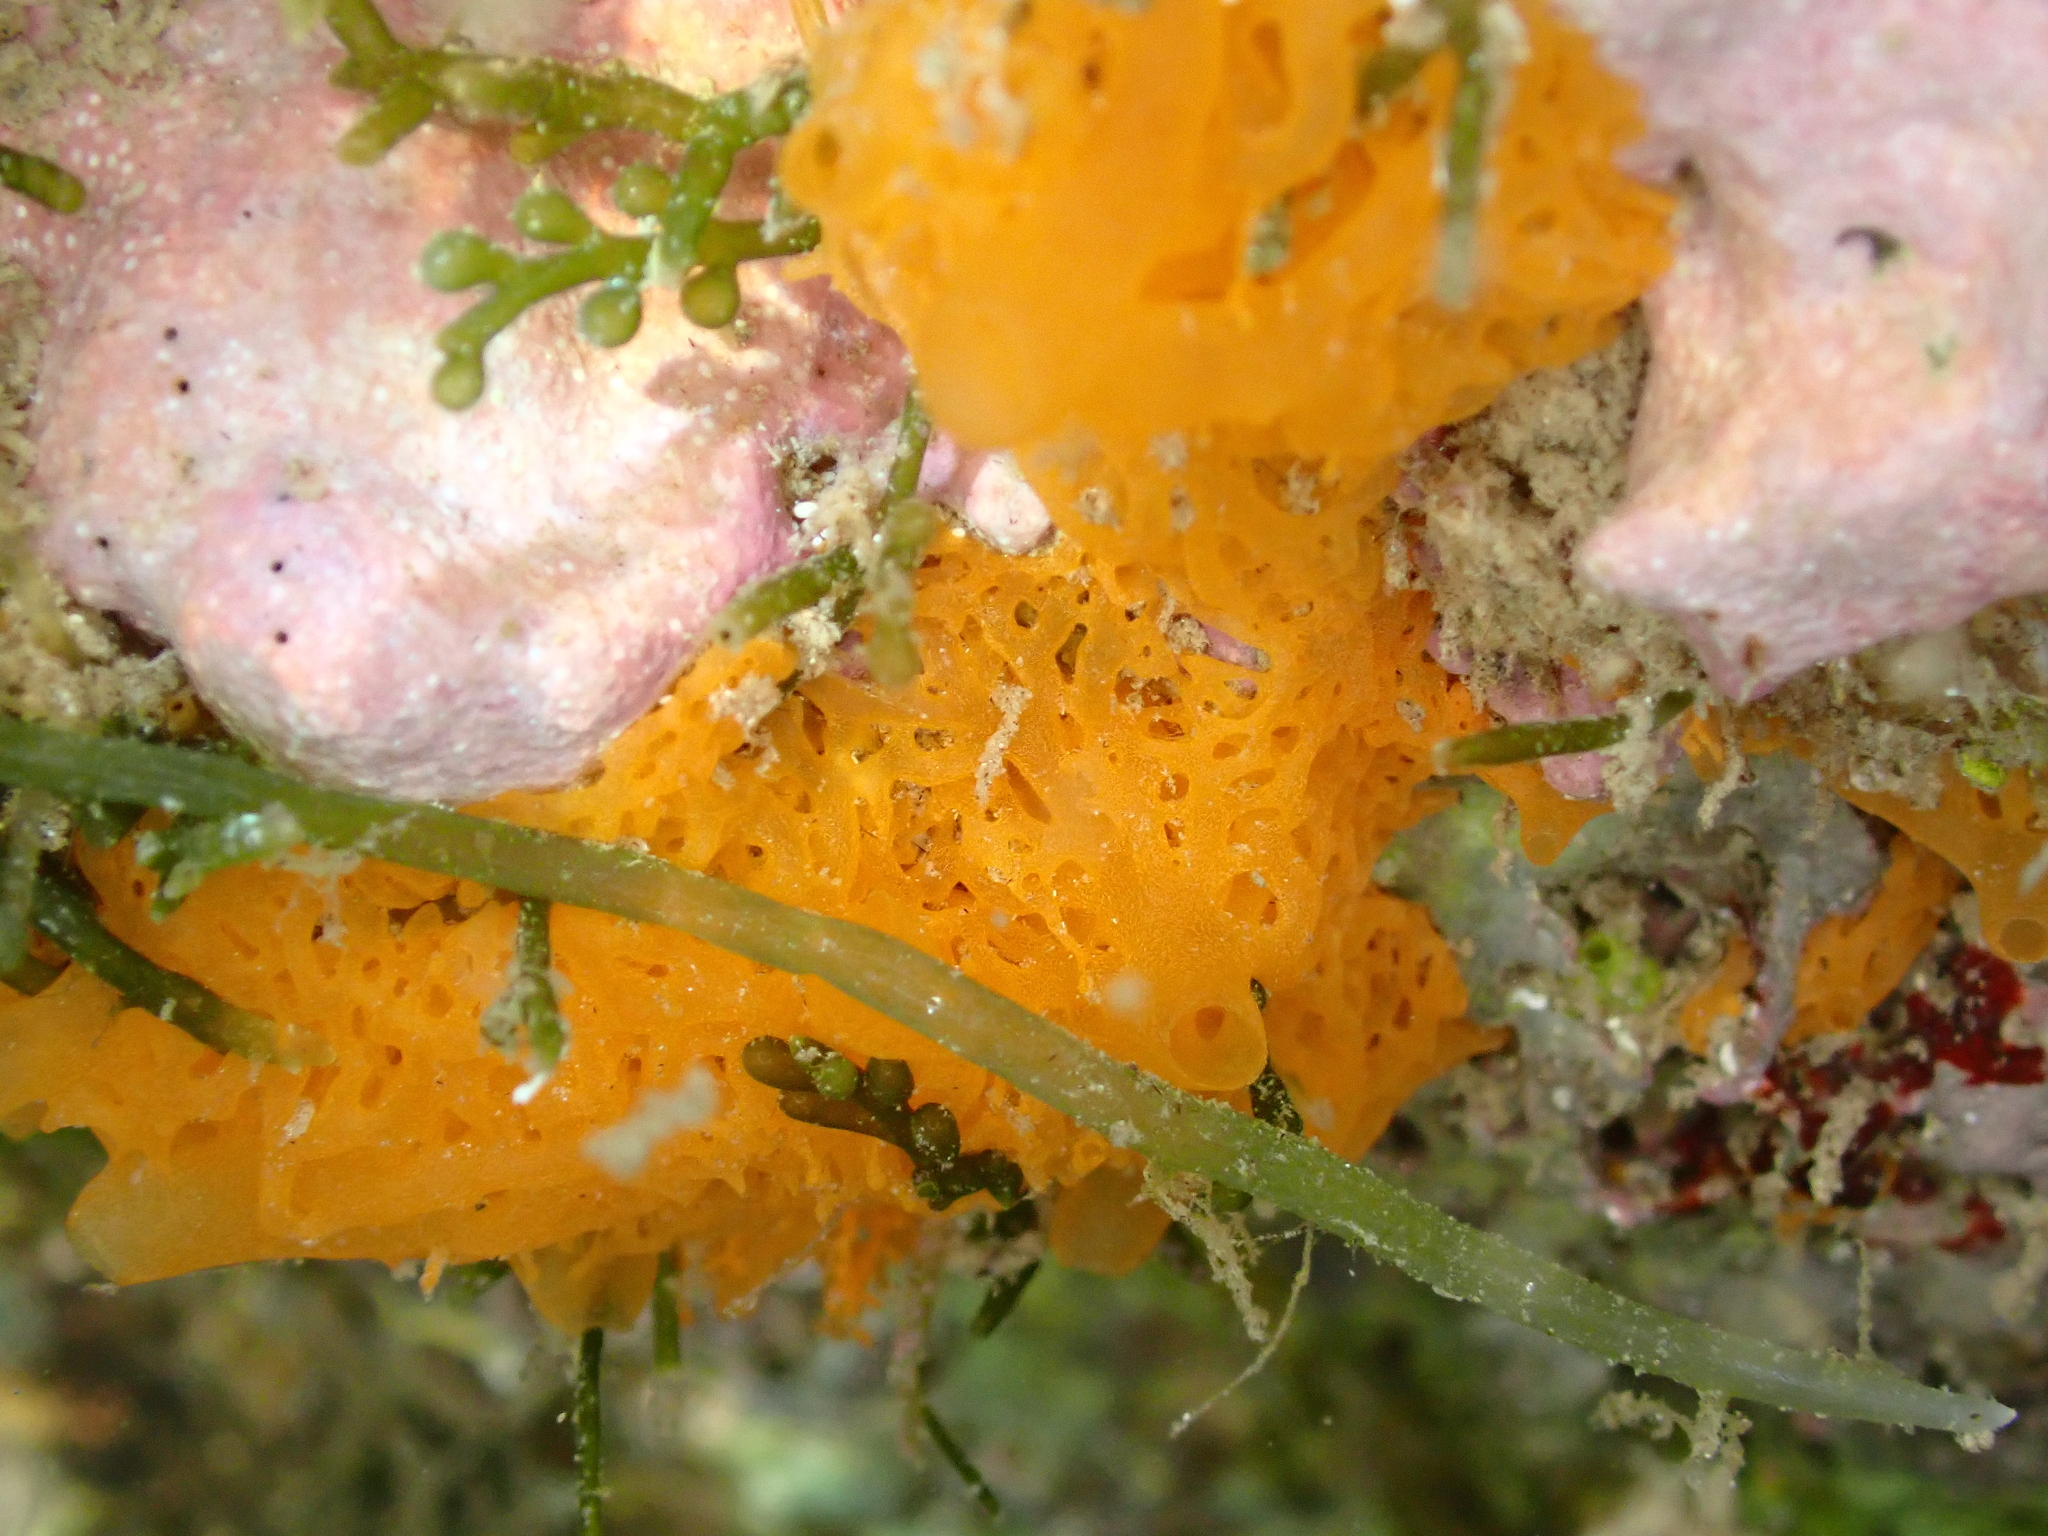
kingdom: Animalia
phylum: Porifera
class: Calcarea
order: Clathrinida
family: Clathrinidae
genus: Clathrina
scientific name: Clathrina rubra
